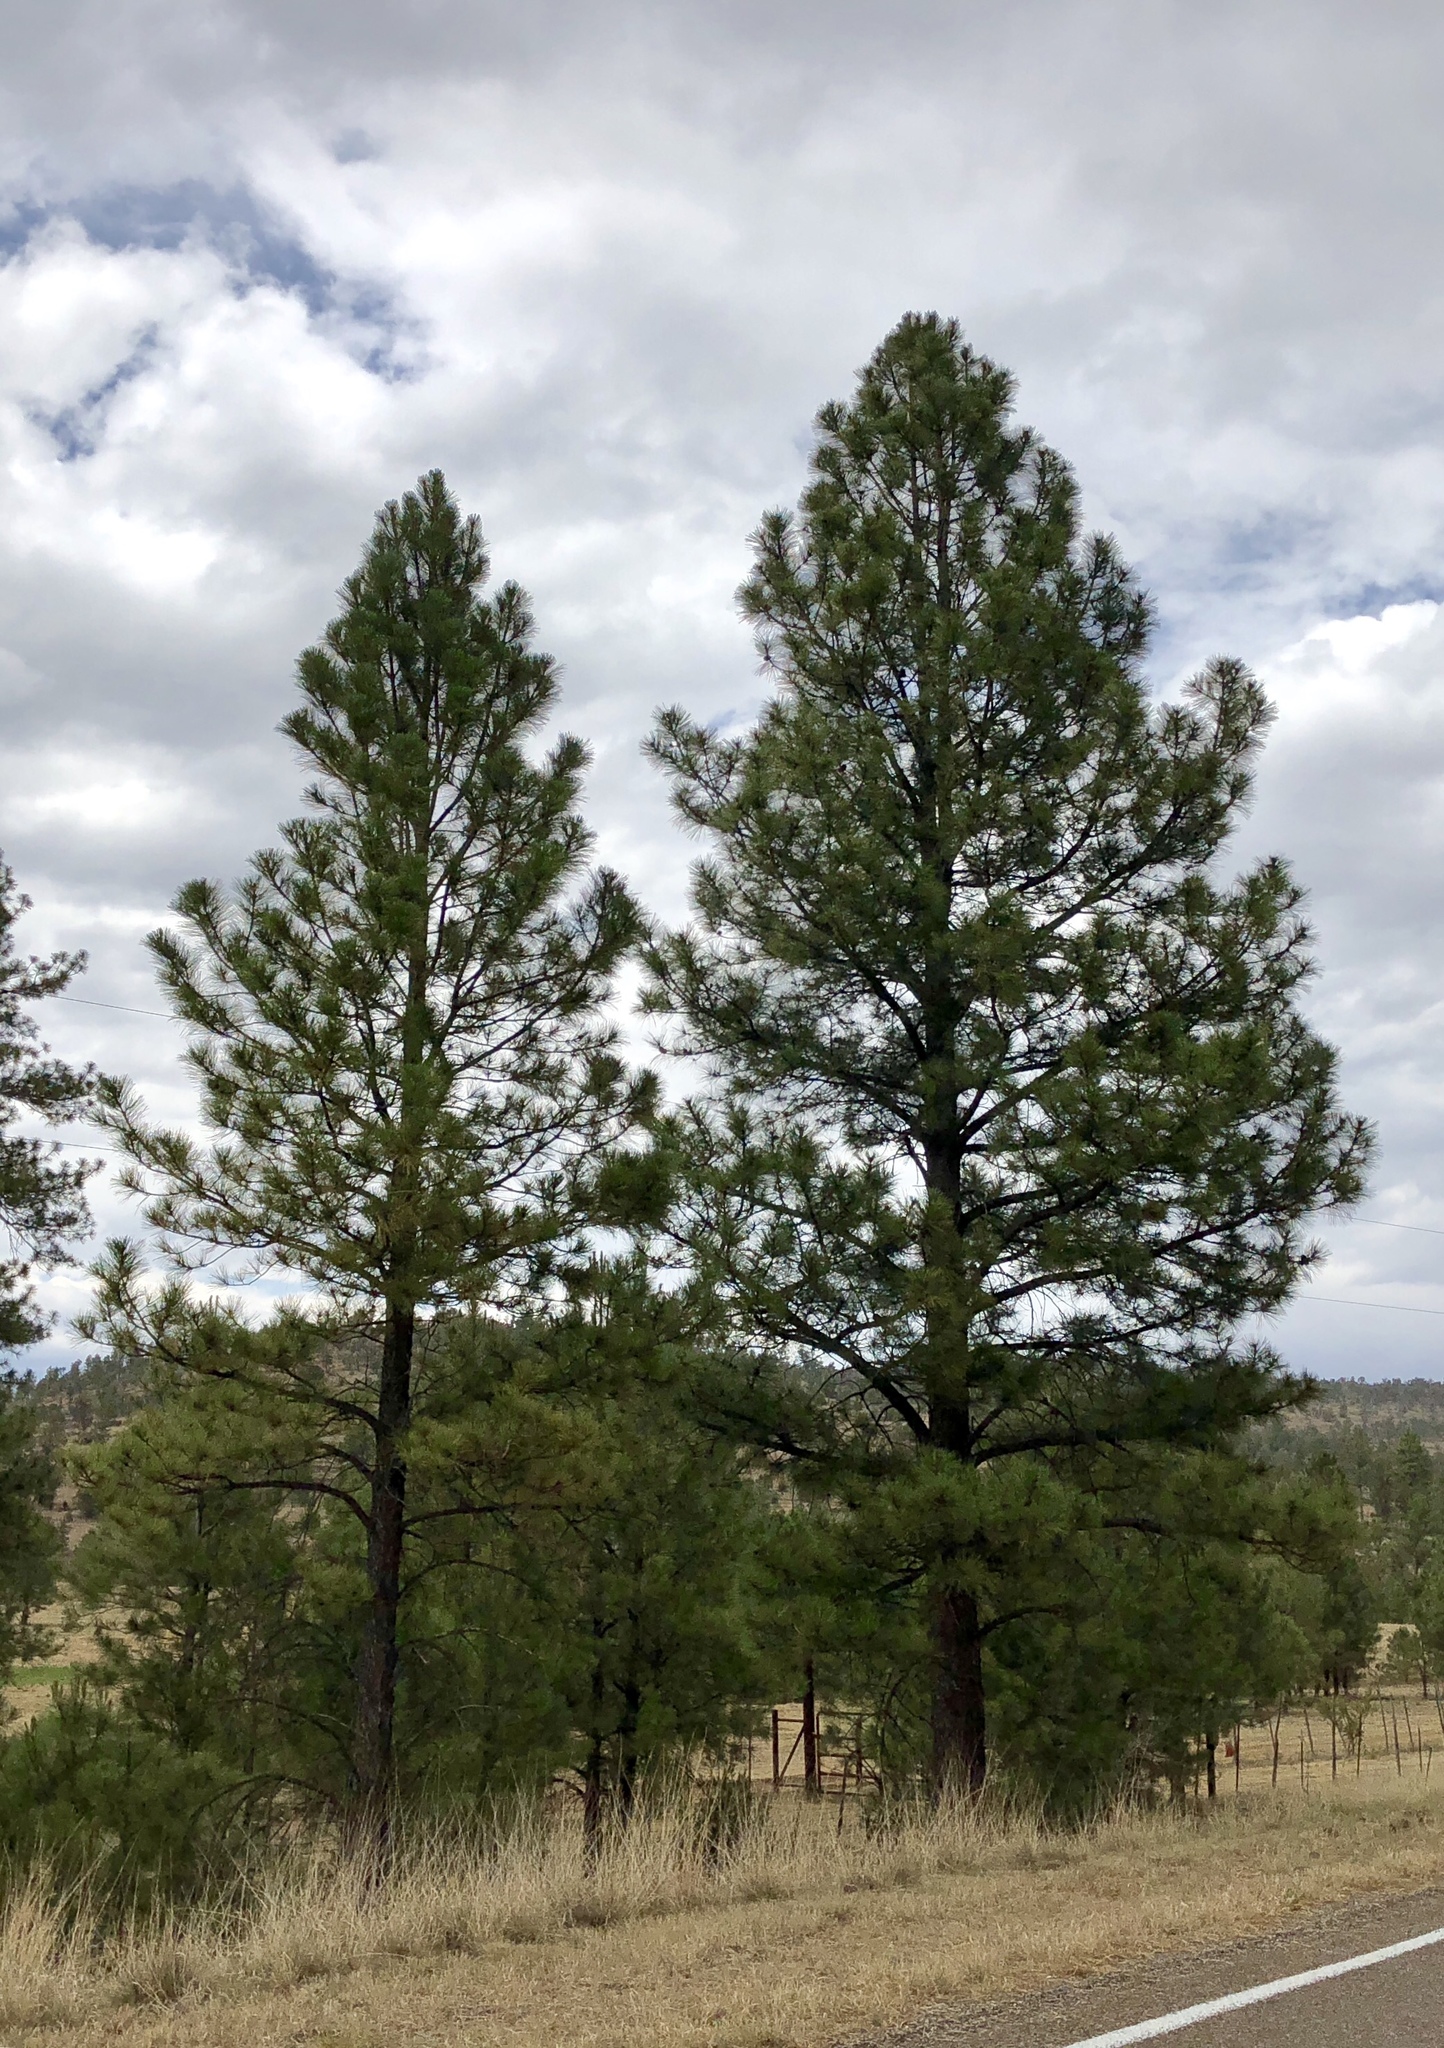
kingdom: Plantae
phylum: Tracheophyta
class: Pinopsida
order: Pinales
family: Pinaceae
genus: Pinus
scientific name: Pinus ponderosa
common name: Western yellow-pine
